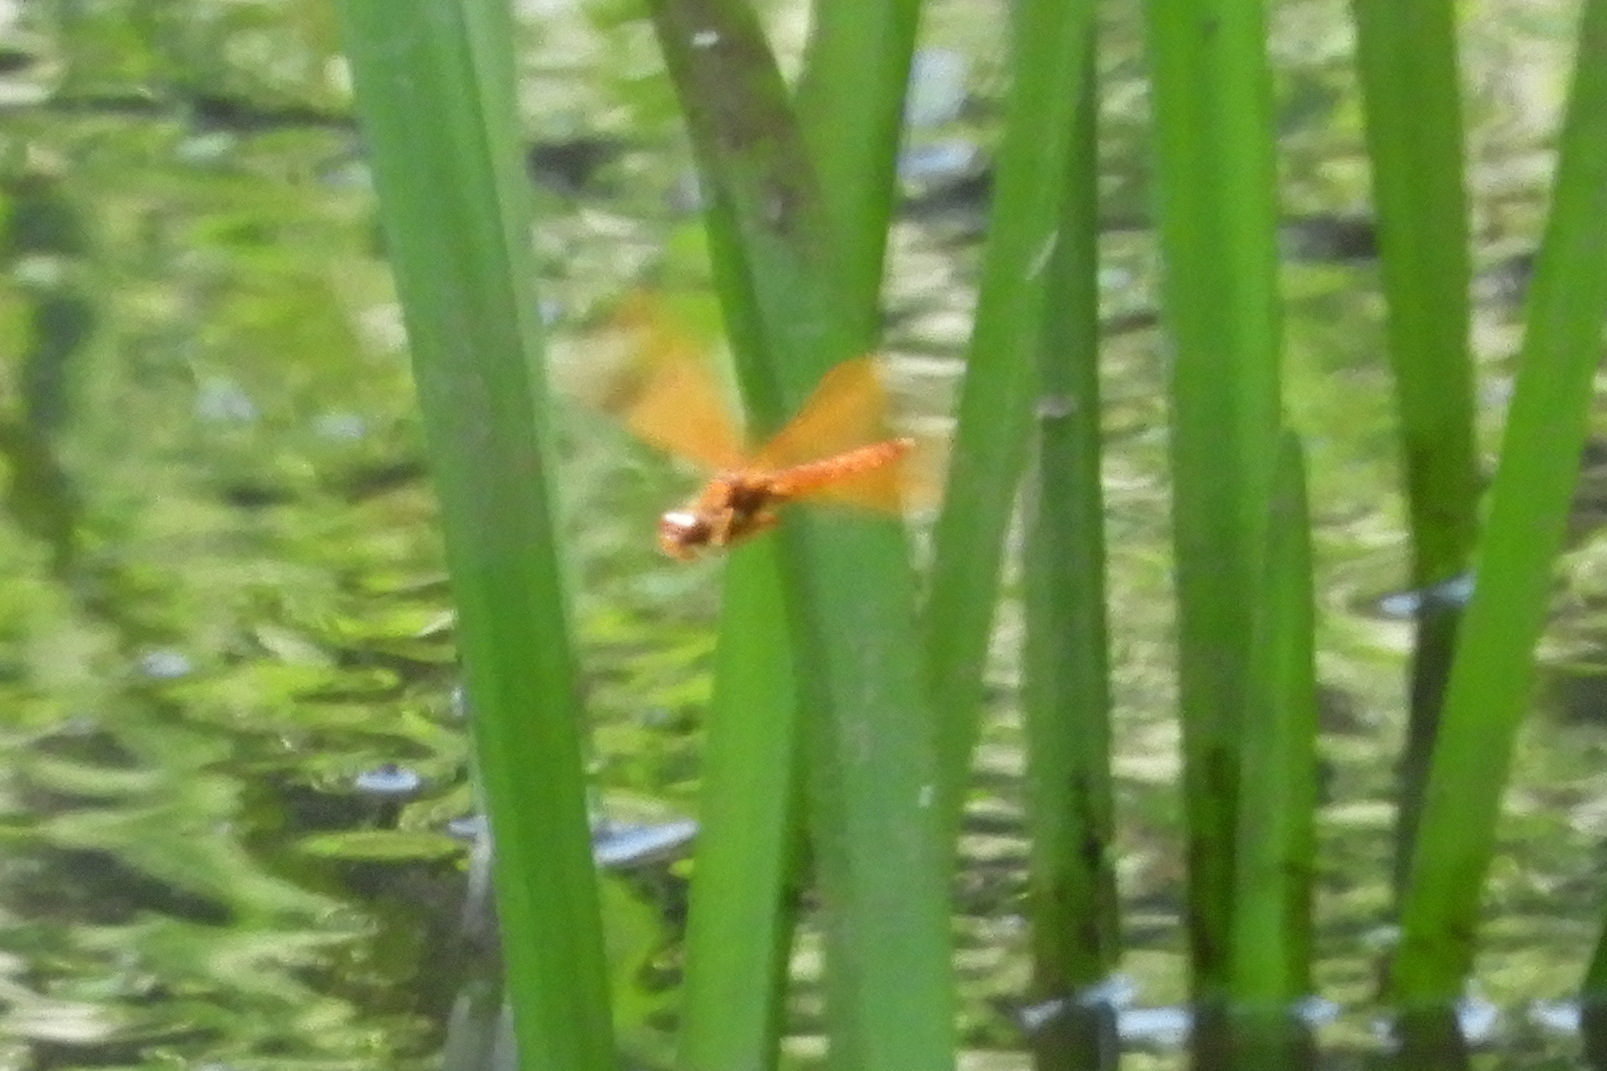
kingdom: Animalia
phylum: Arthropoda
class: Insecta
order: Odonata
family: Libellulidae
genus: Perithemis
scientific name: Perithemis tenera
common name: Eastern amberwing
